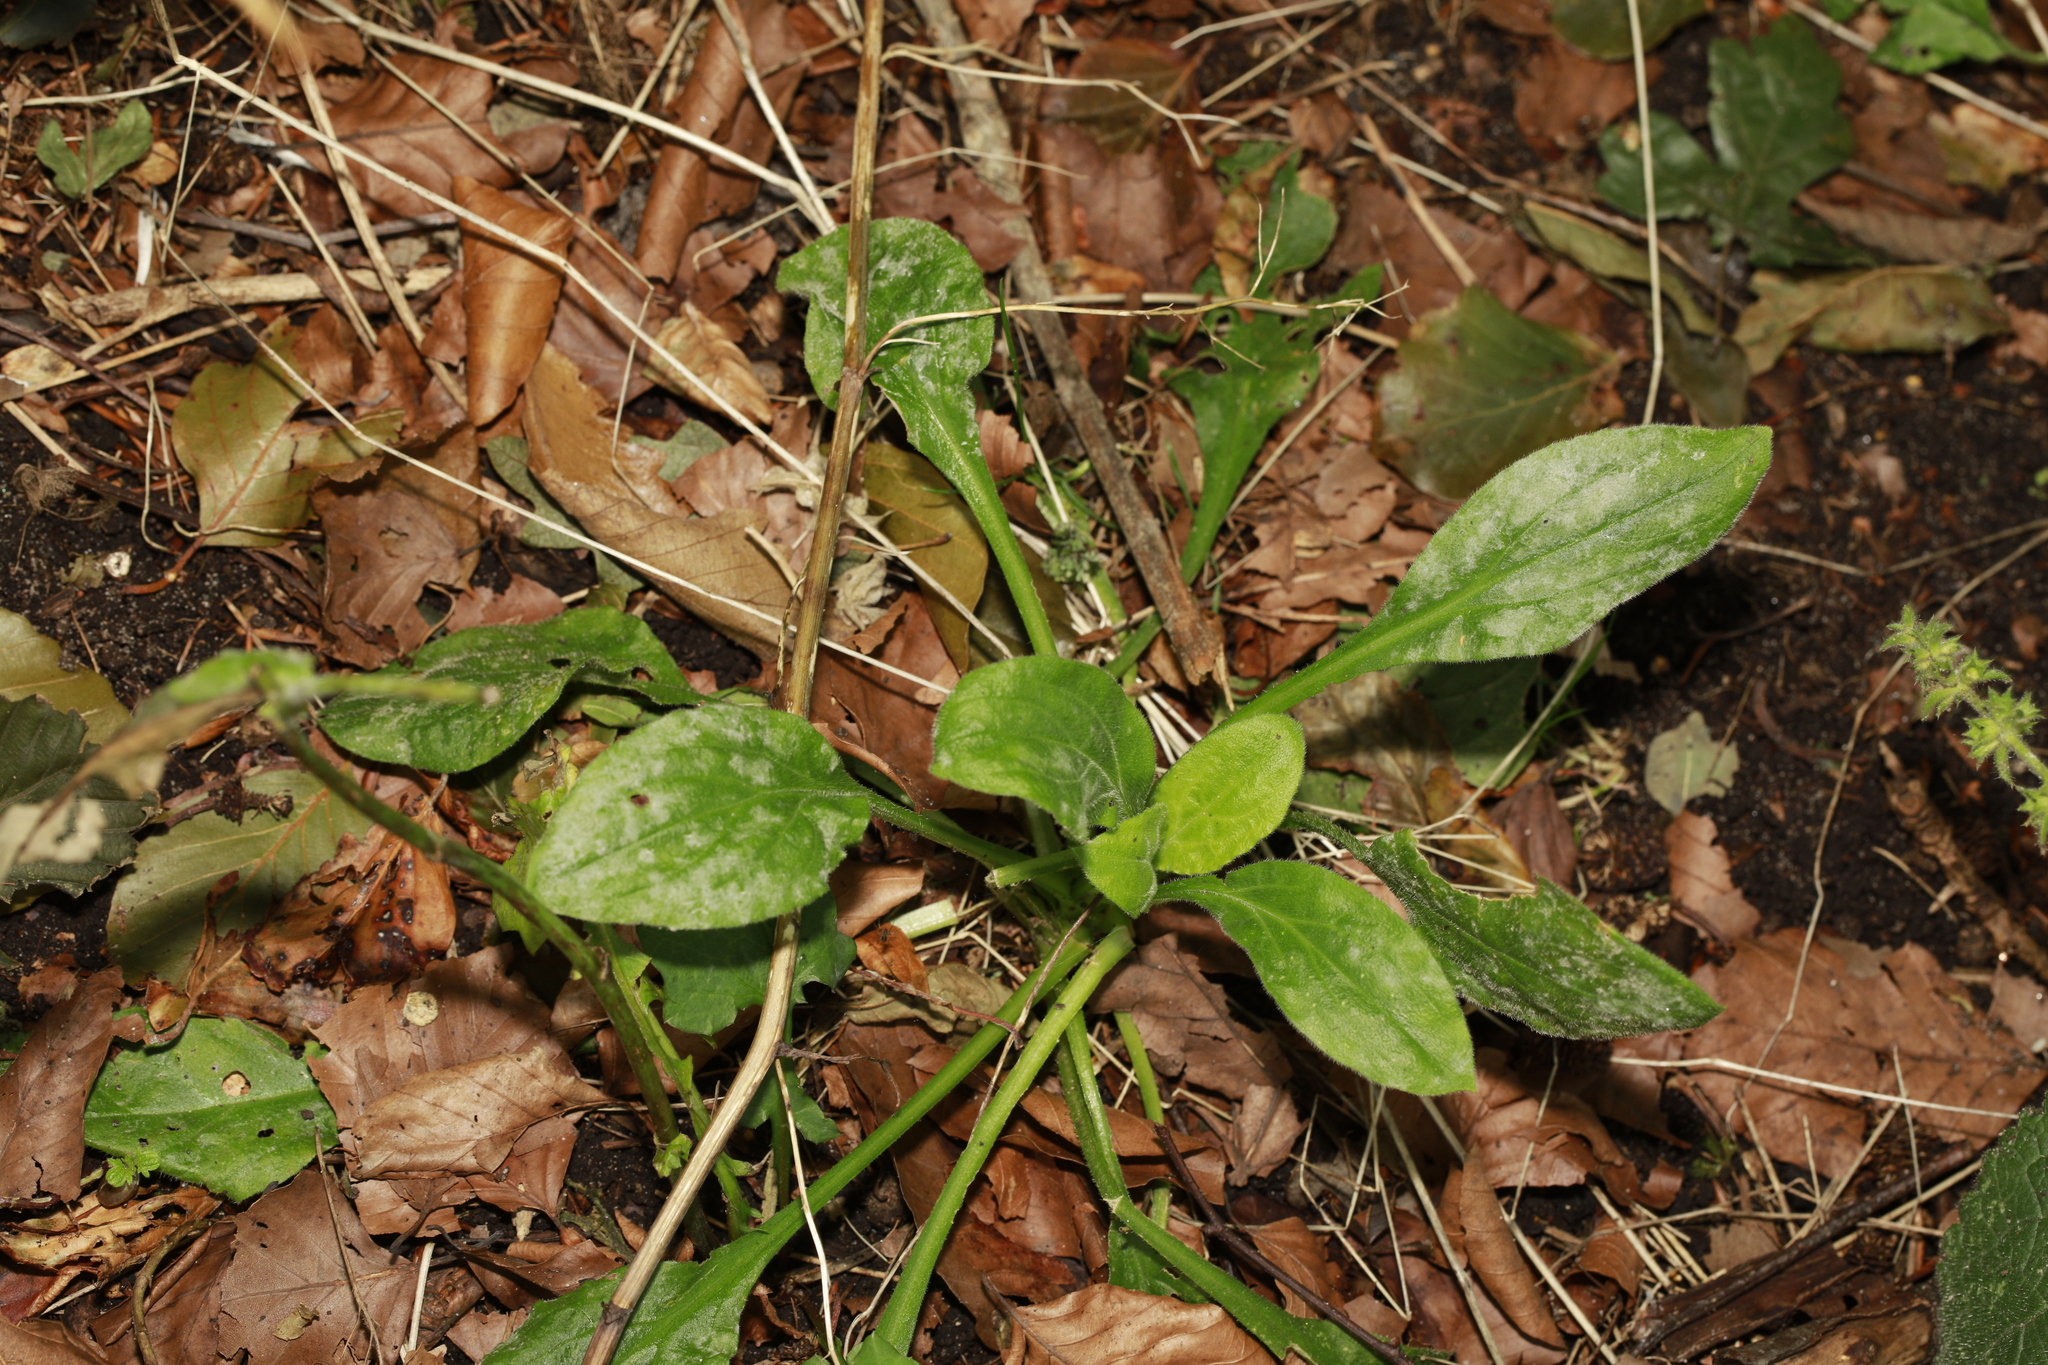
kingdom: Fungi
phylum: Ascomycota
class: Leotiomycetes
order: Helotiales
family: Erysiphaceae
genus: Golovinomyces
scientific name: Golovinomyces sordidus
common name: Plantain mildew
